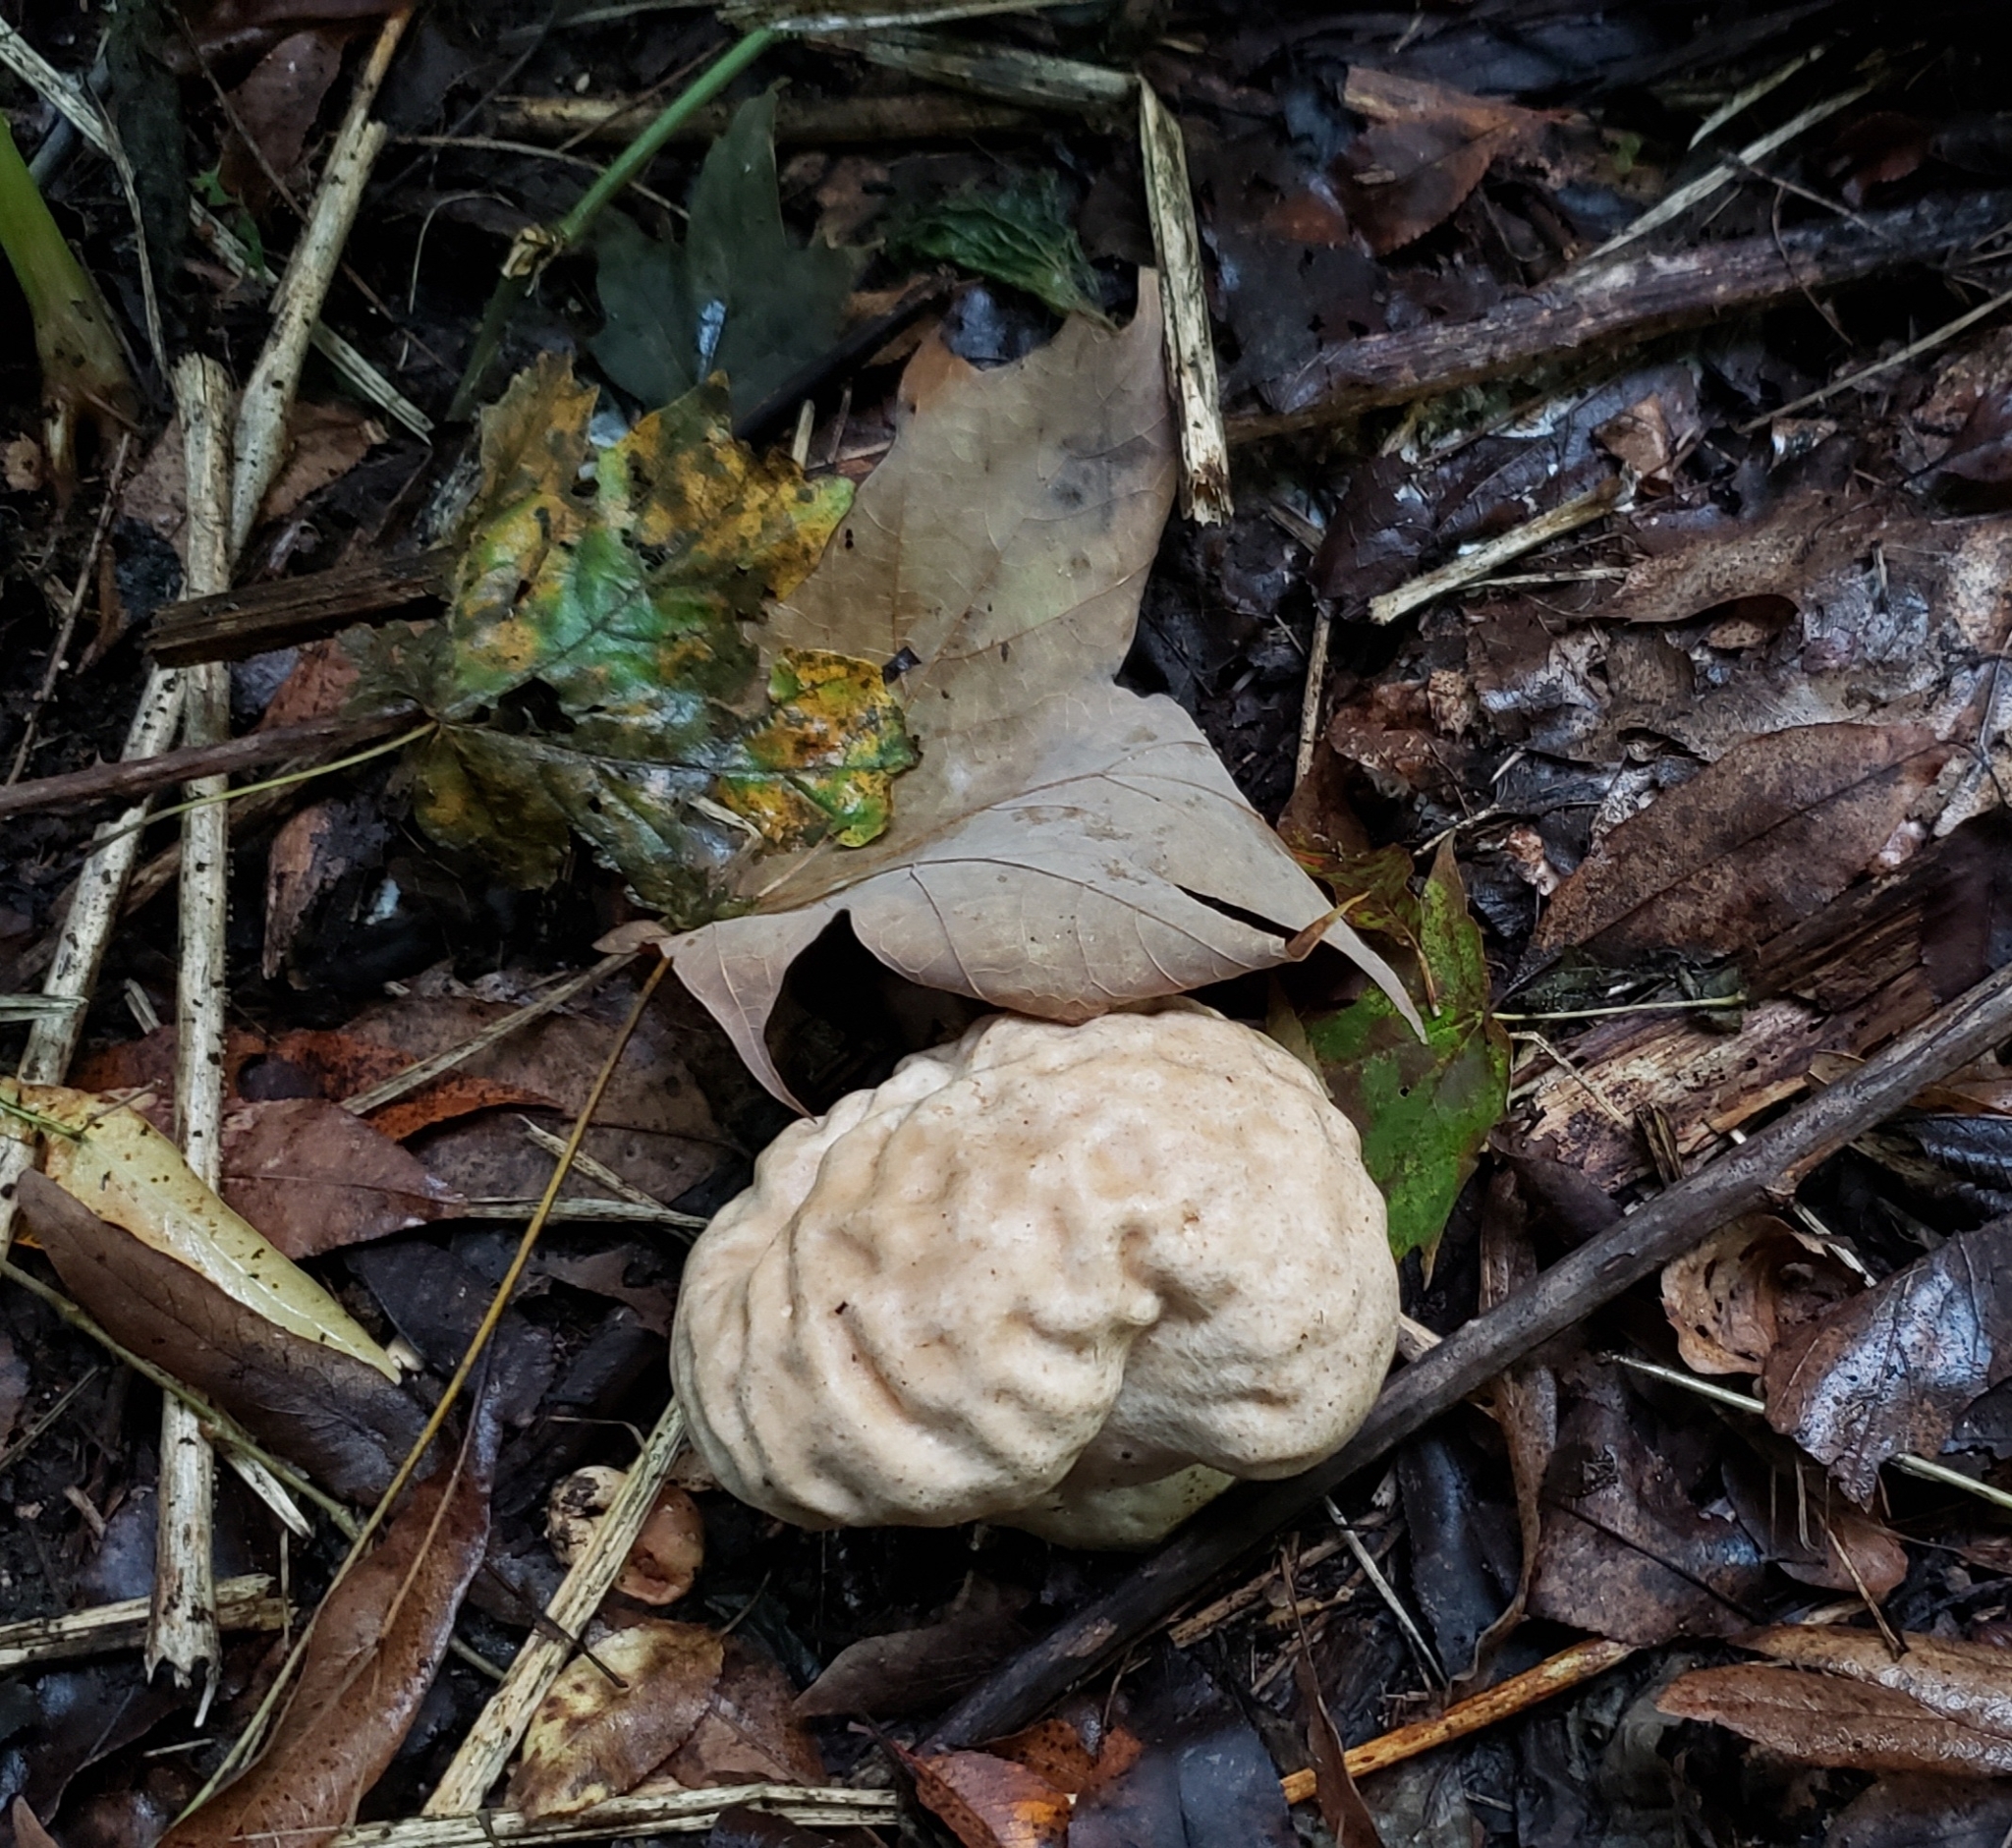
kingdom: Fungi
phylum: Basidiomycota
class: Agaricomycetes
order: Agaricales
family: Lycoperdaceae
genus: Calvatia
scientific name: Calvatia craniiformis
